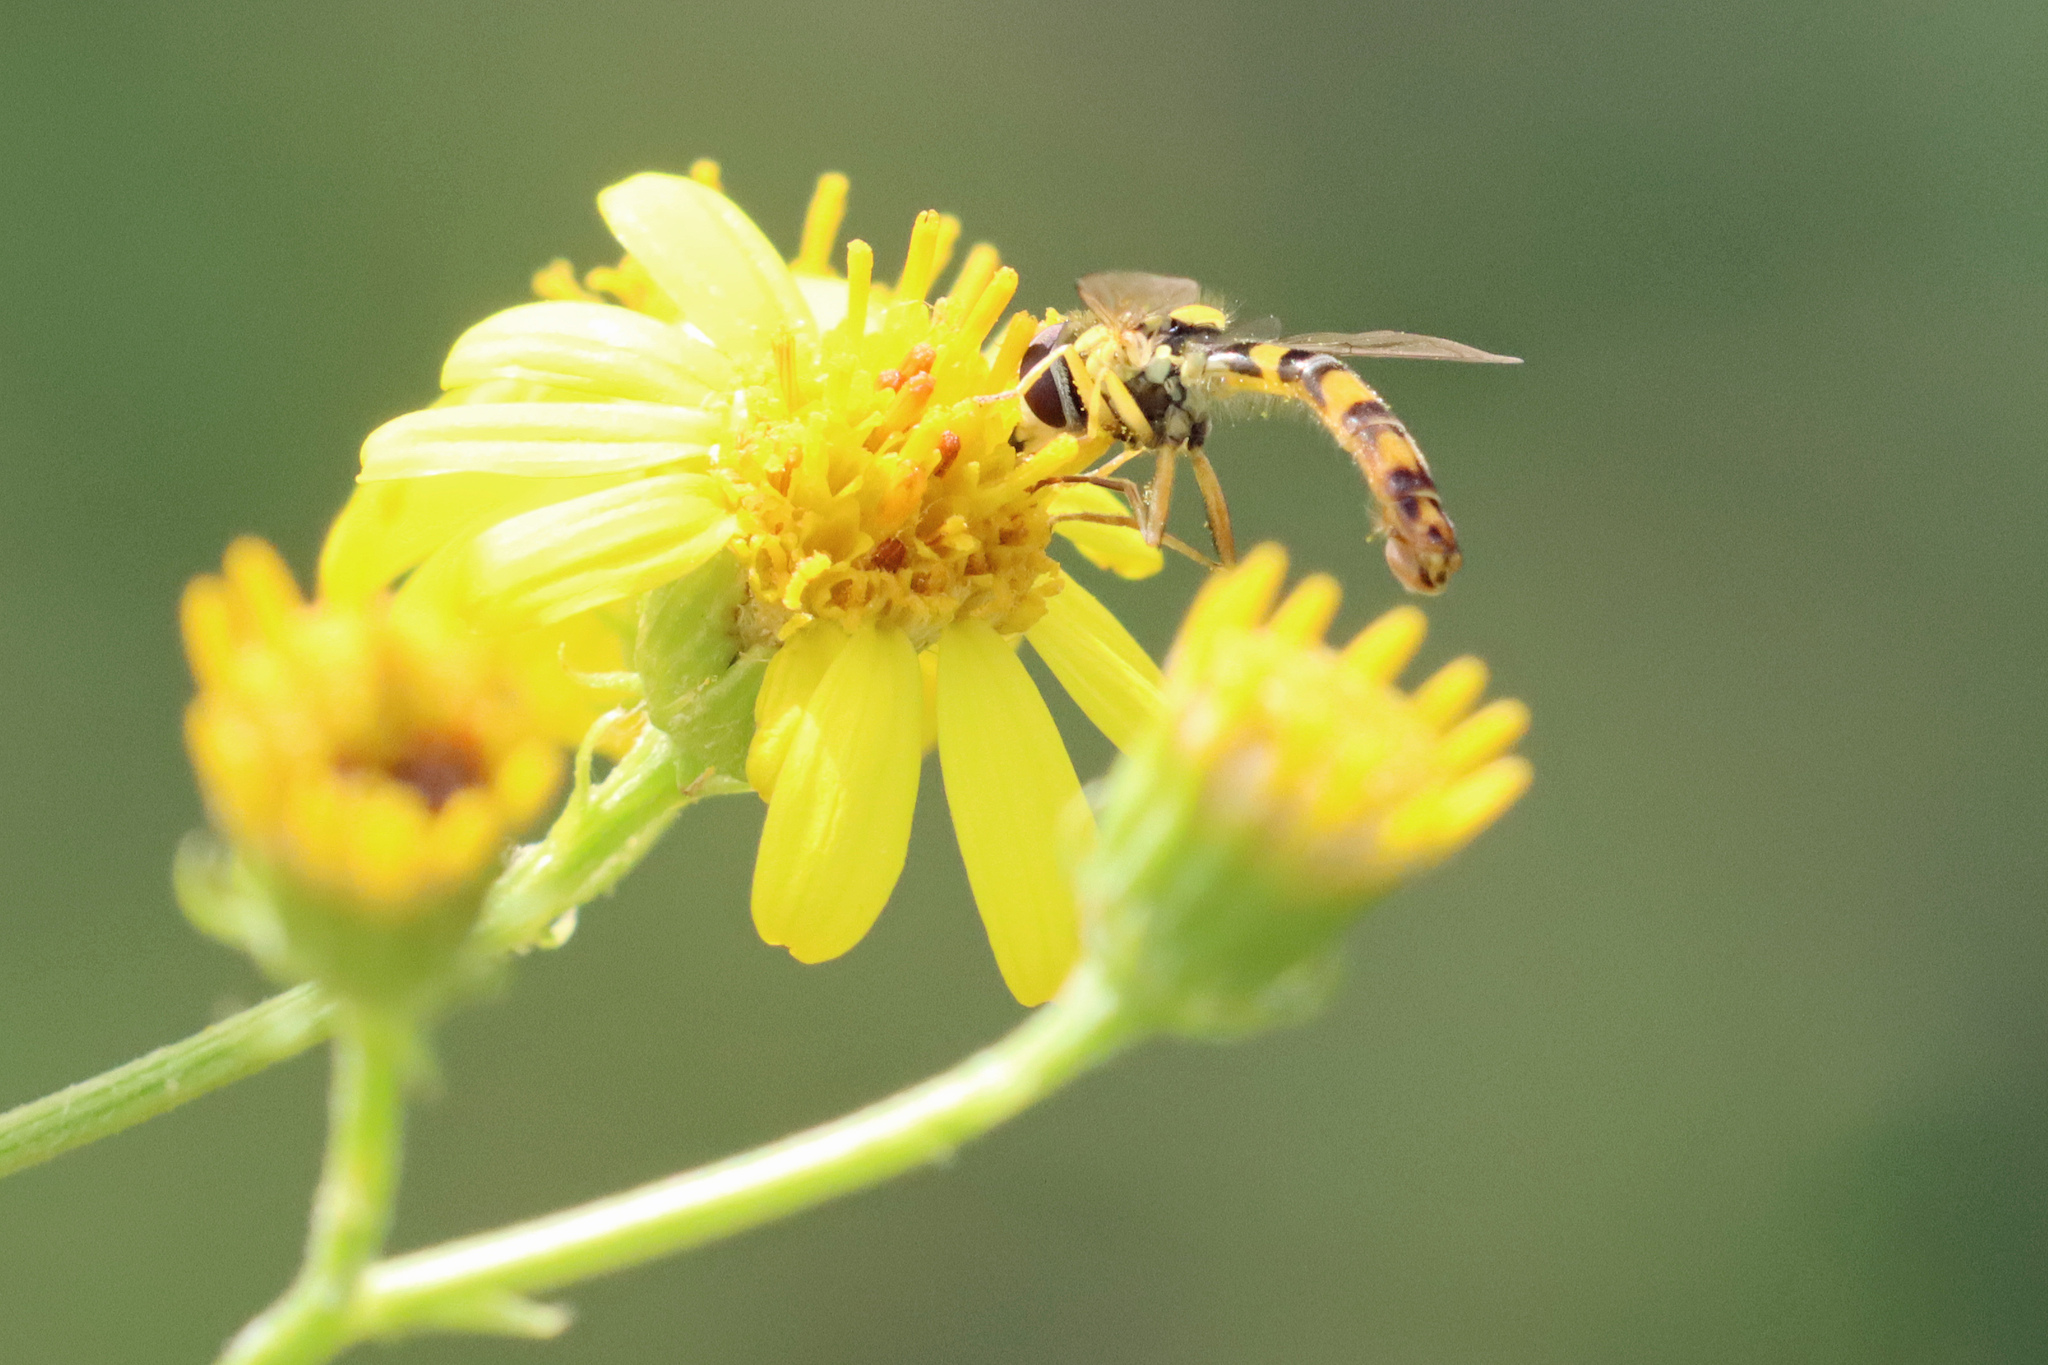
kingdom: Animalia
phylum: Arthropoda
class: Insecta
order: Diptera
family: Syrphidae
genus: Sphaerophoria
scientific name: Sphaerophoria
